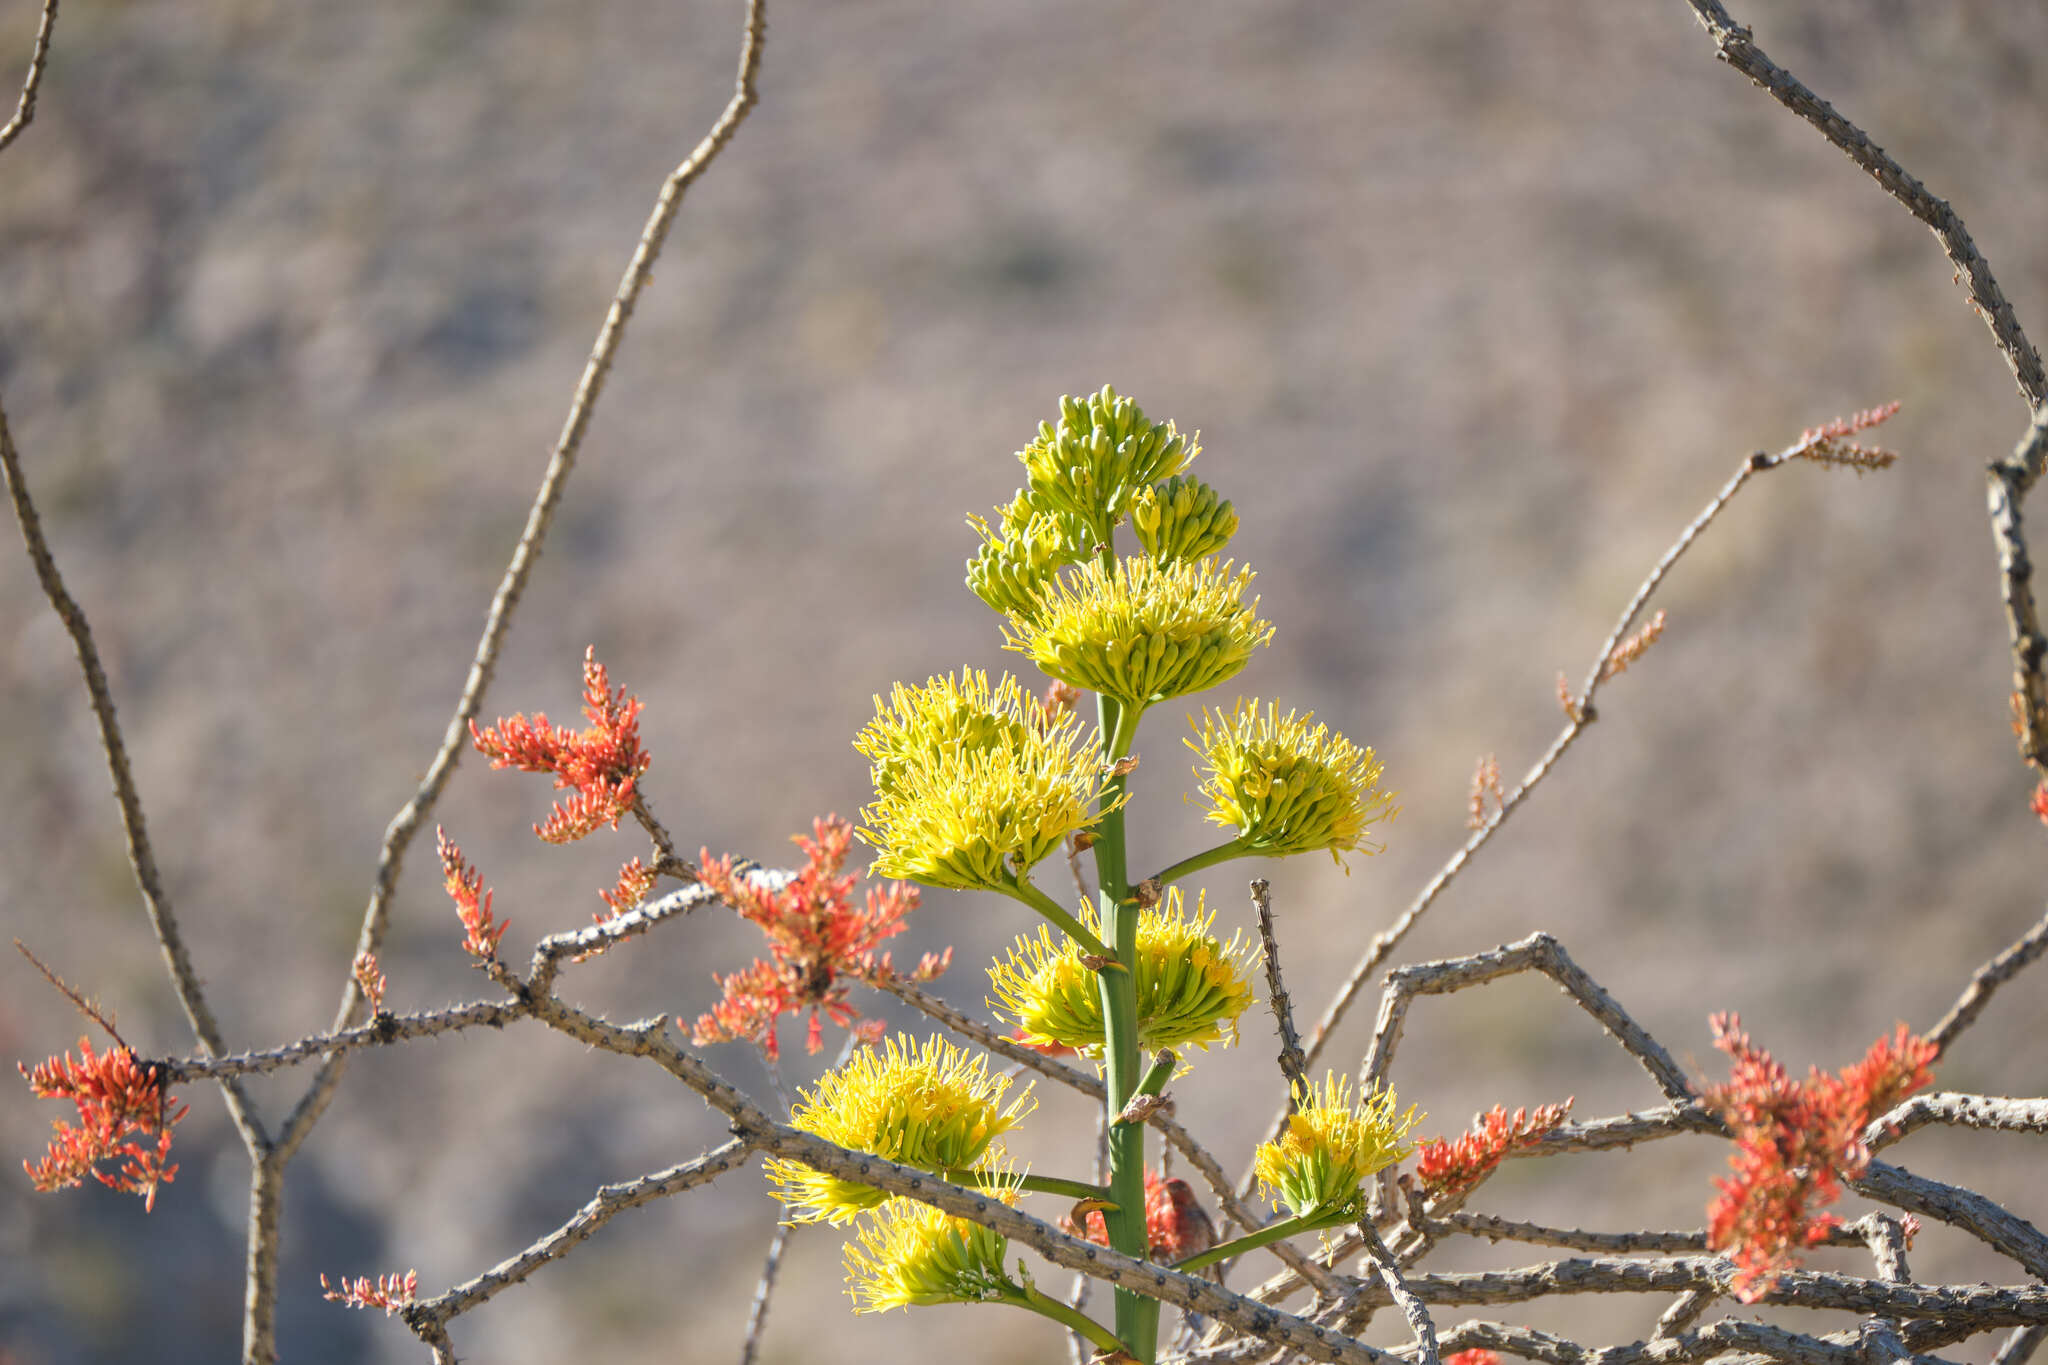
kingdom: Plantae
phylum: Tracheophyta
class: Liliopsida
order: Asparagales
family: Asparagaceae
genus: Agave
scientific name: Agave deserti
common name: Desert agave
